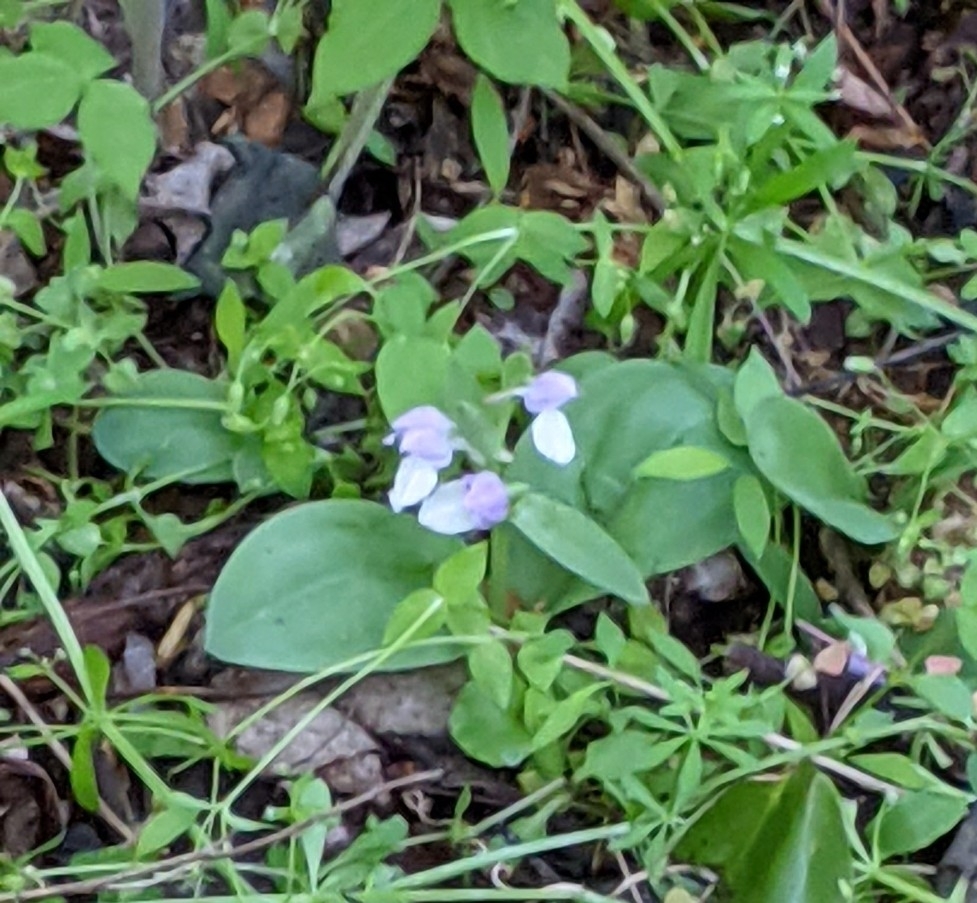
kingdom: Plantae
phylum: Tracheophyta
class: Liliopsida
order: Asparagales
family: Orchidaceae
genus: Galearis
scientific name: Galearis spectabilis
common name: Purple-hooded orchis
